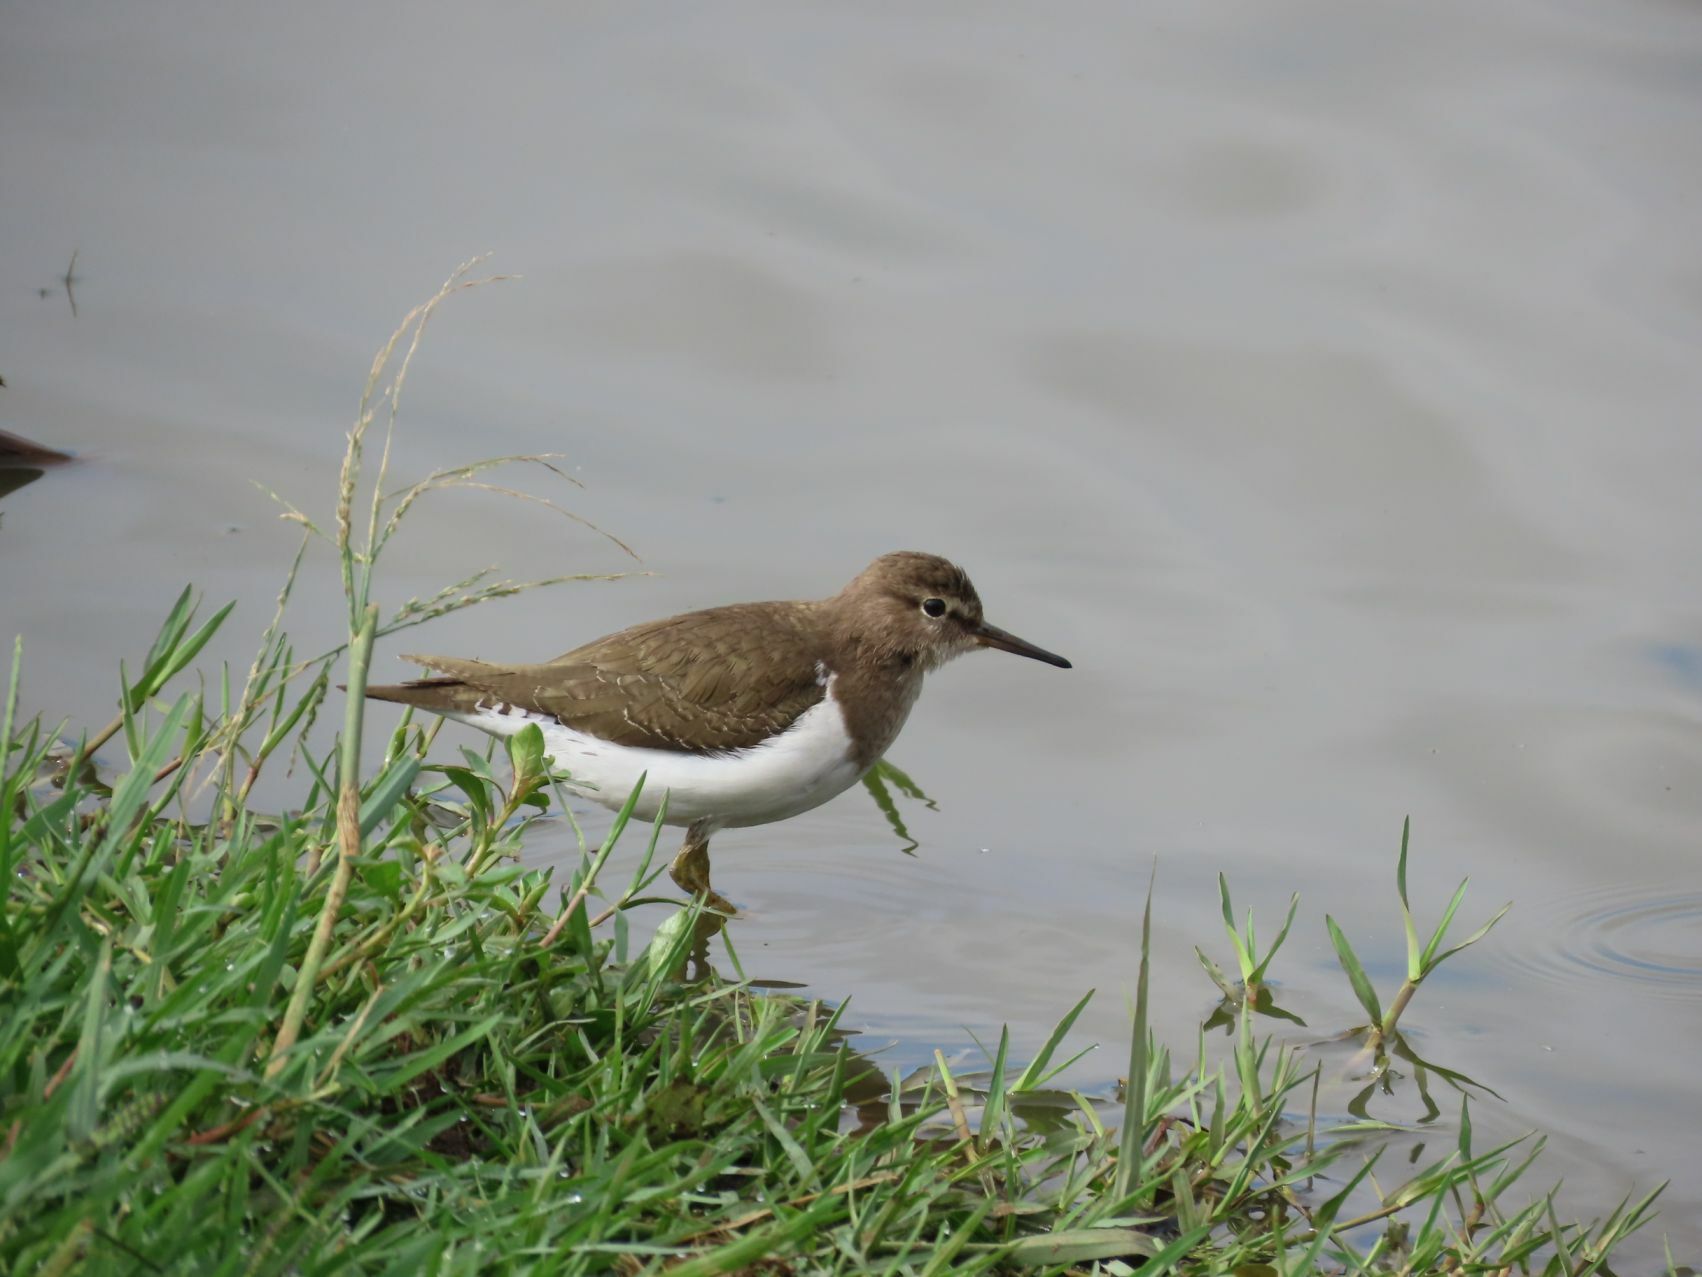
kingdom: Animalia
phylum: Chordata
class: Aves
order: Charadriiformes
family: Scolopacidae
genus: Actitis
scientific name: Actitis hypoleucos
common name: Common sandpiper
